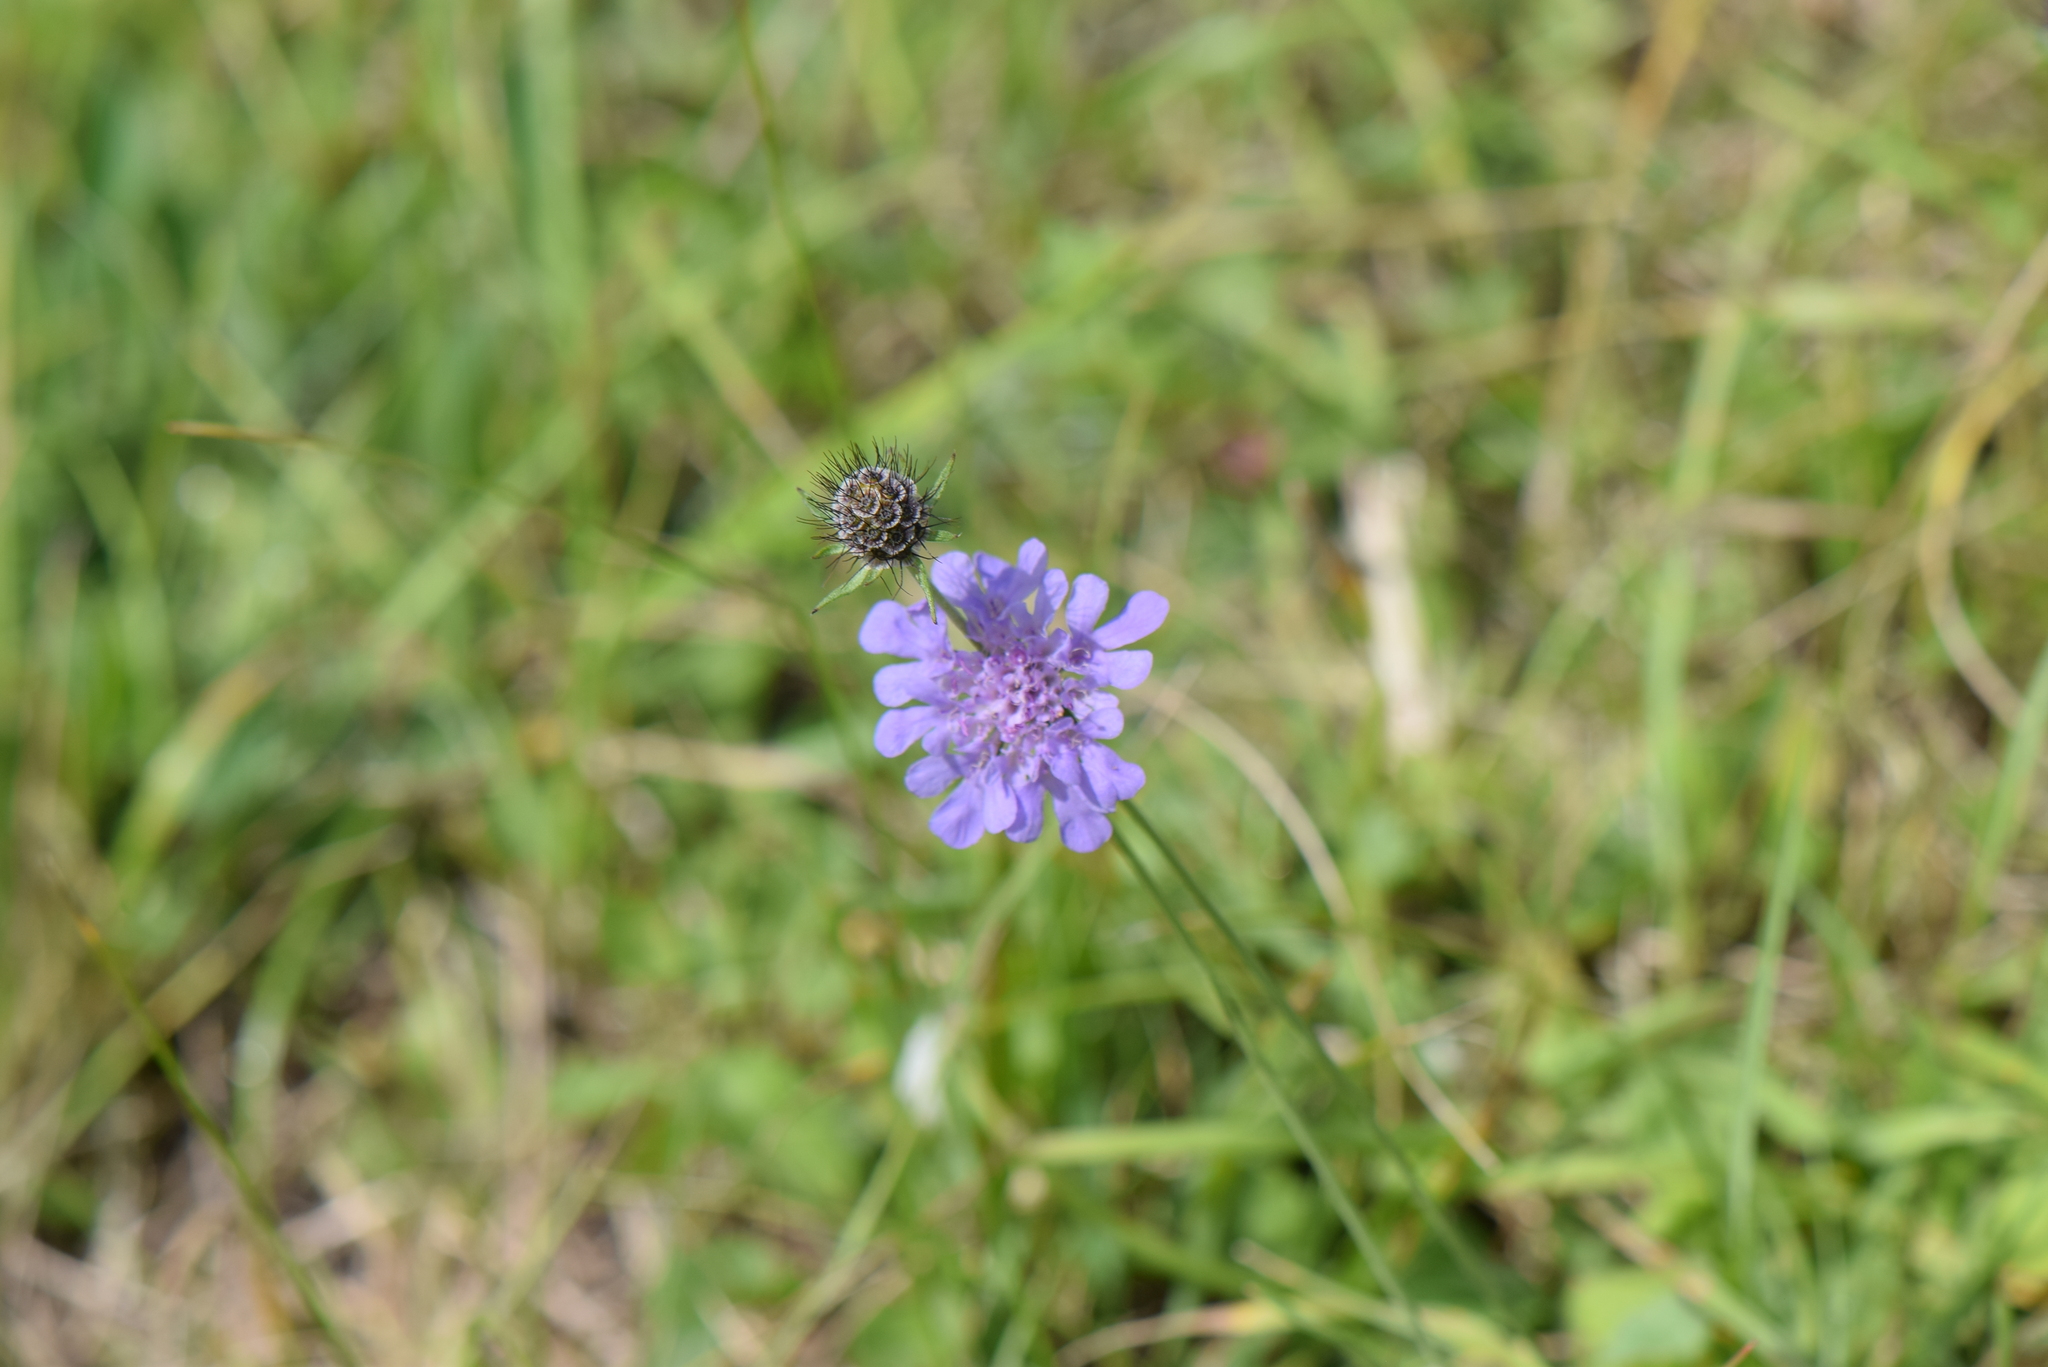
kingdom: Plantae
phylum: Tracheophyta
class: Magnoliopsida
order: Dipsacales
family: Caprifoliaceae
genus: Scabiosa
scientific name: Scabiosa columbaria
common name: Small scabious
